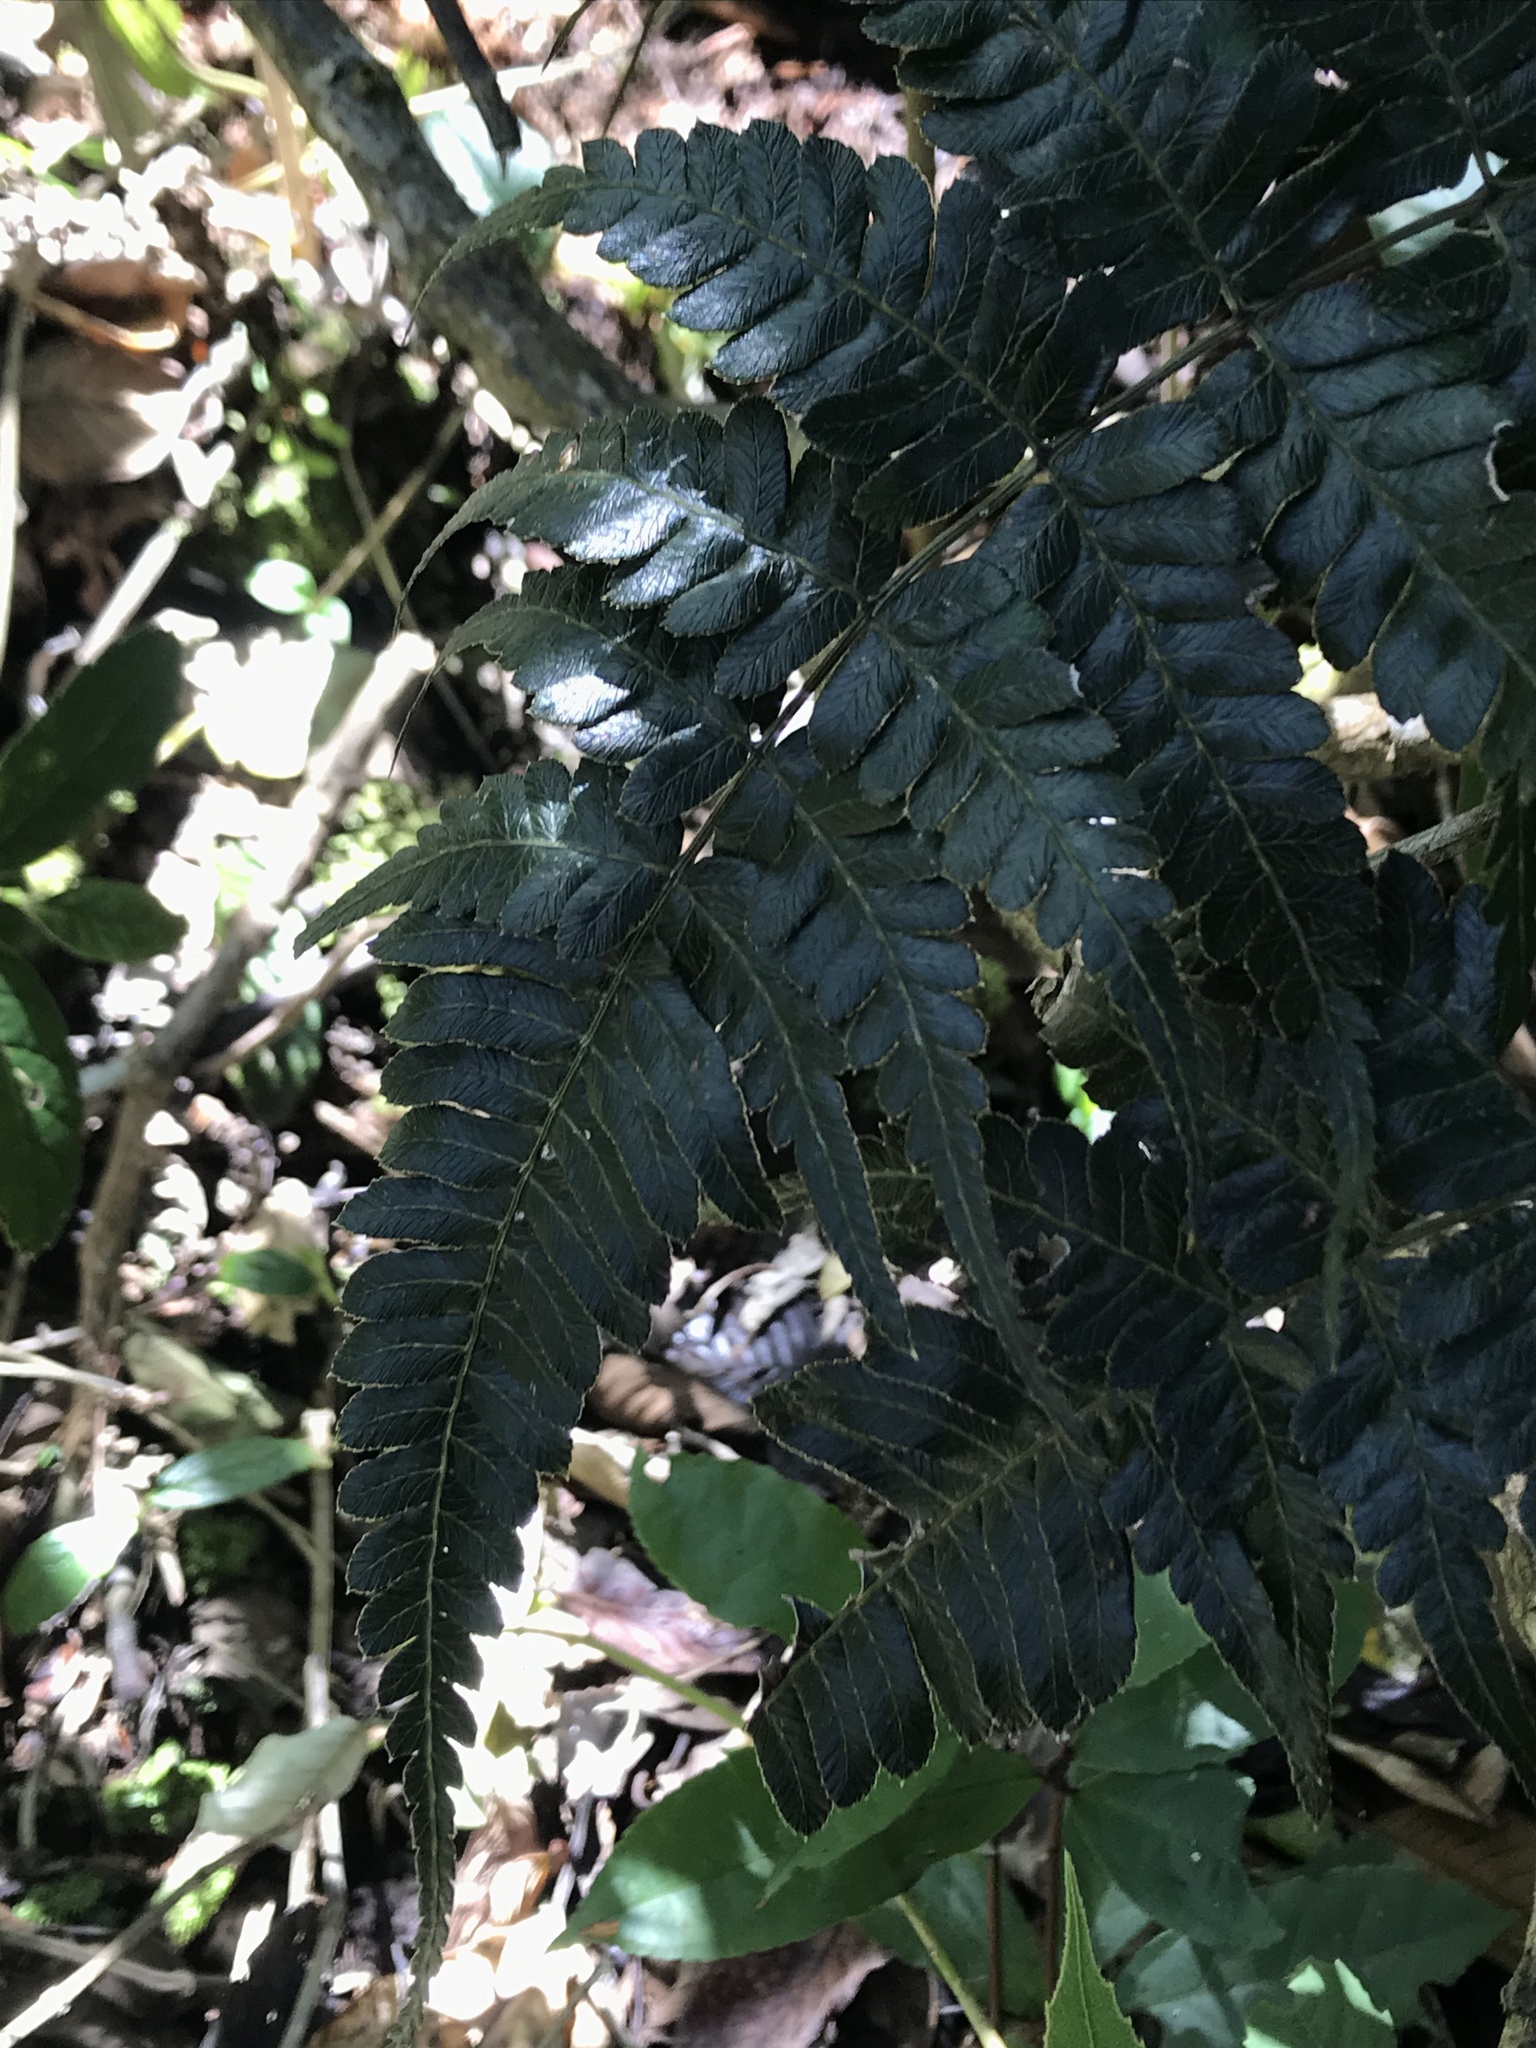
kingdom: Plantae
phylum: Tracheophyta
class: Polypodiopsida
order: Polypodiales
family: Polypodiaceae
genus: Pleopeltis
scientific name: Pleopeltis murora
